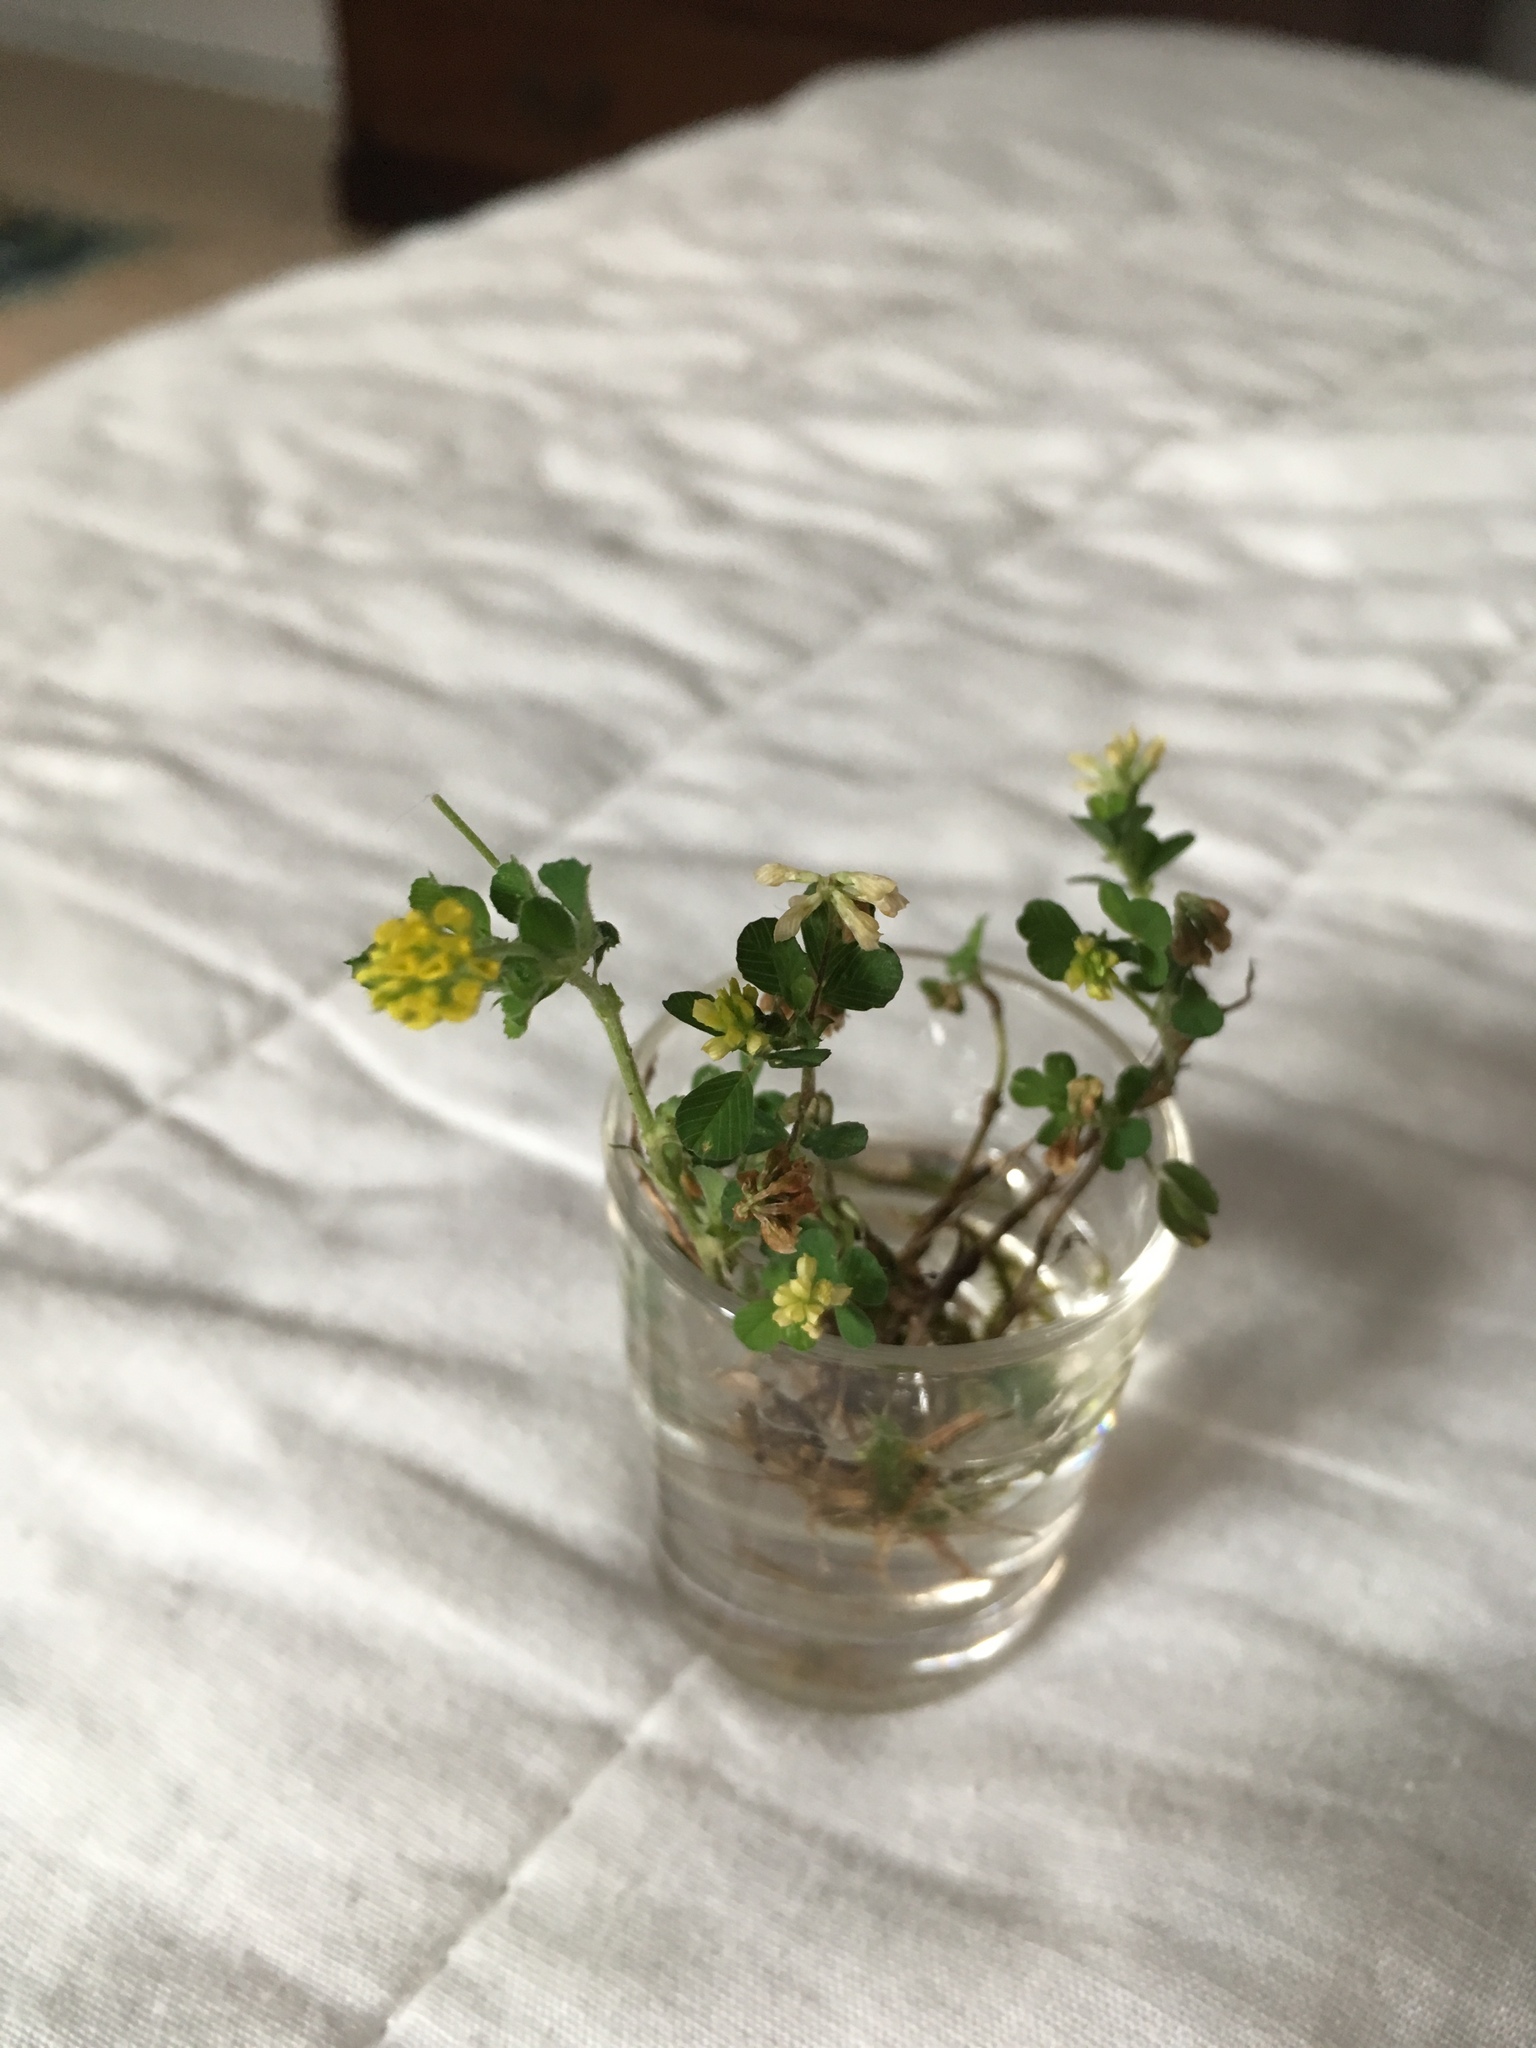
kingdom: Plantae
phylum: Tracheophyta
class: Magnoliopsida
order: Fabales
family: Fabaceae
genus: Trifolium
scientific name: Trifolium dubium
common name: Suckling clover
